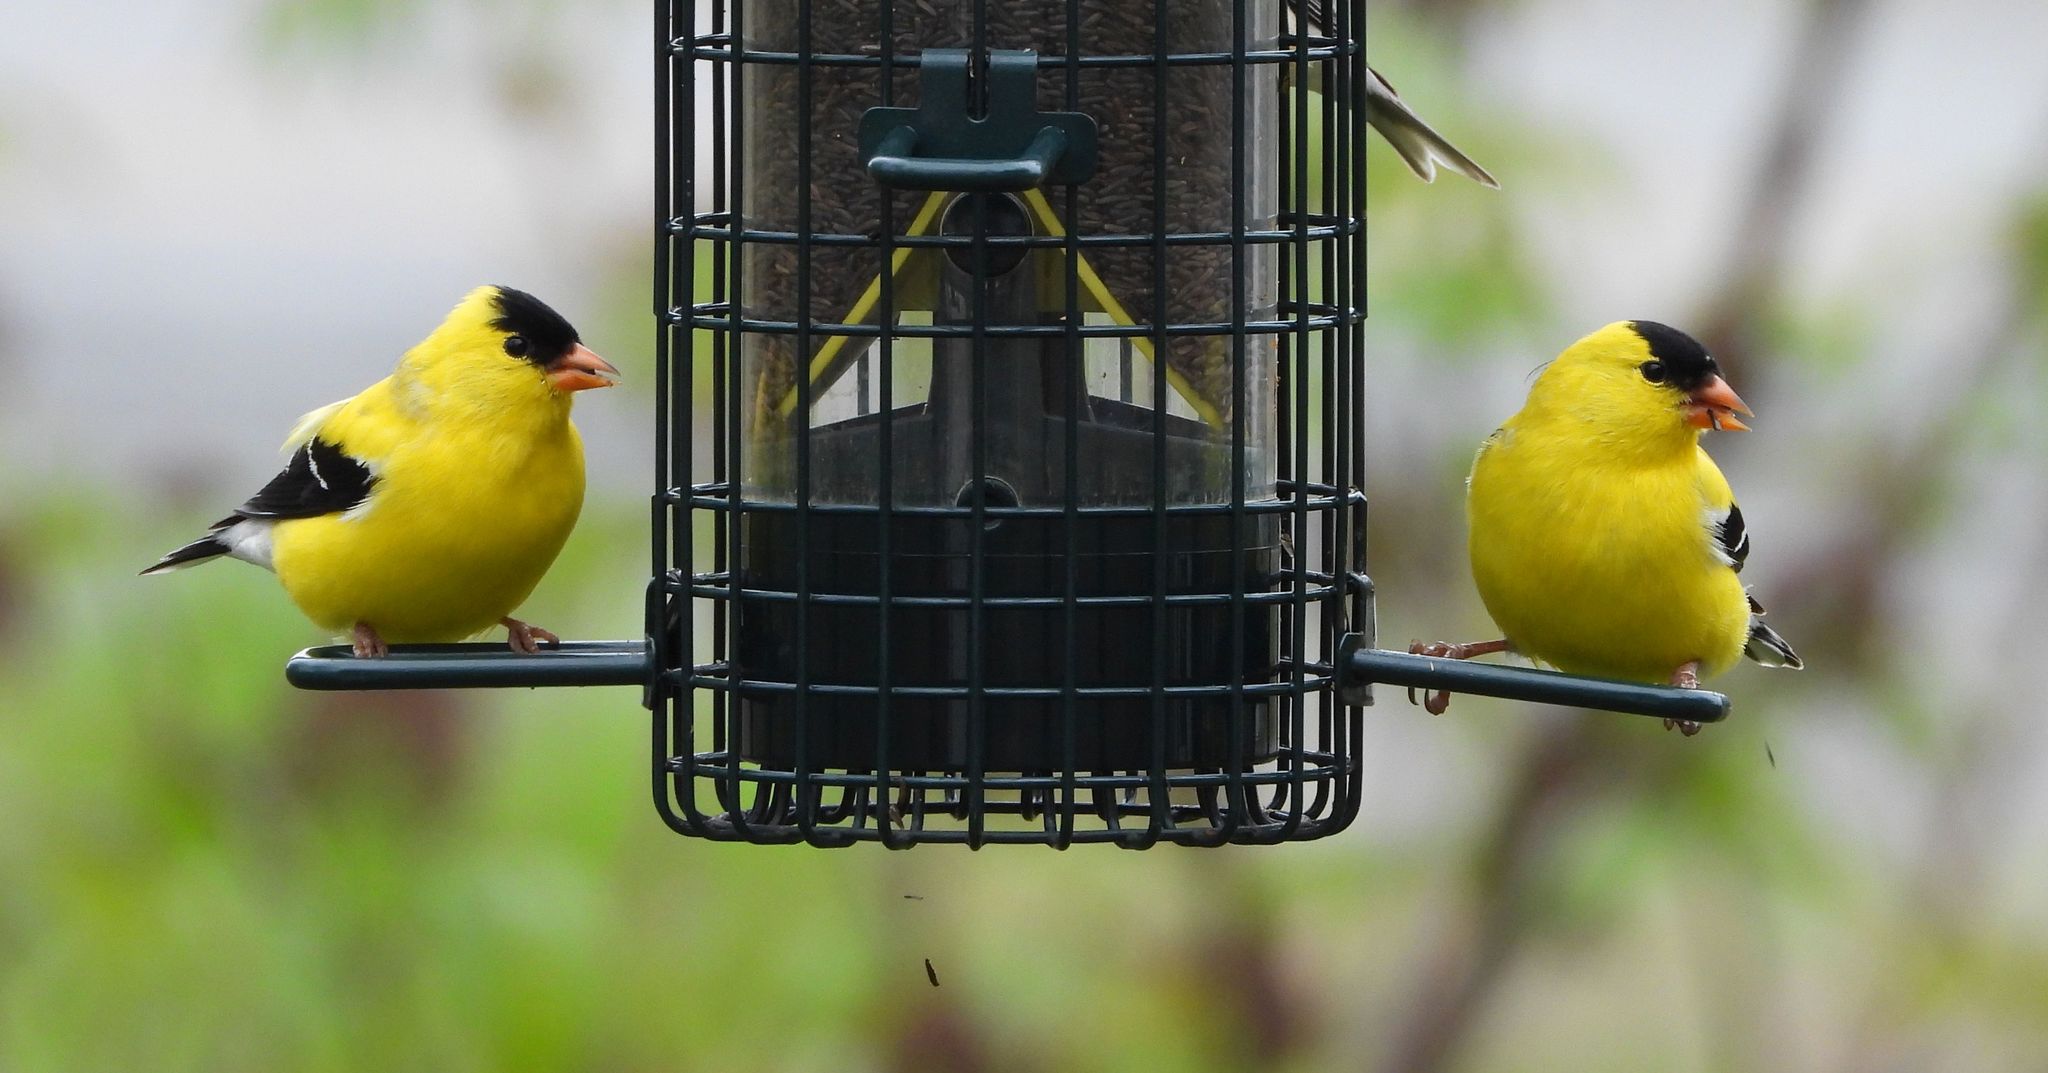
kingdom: Animalia
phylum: Chordata
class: Aves
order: Passeriformes
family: Fringillidae
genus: Spinus
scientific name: Spinus tristis
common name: American goldfinch
